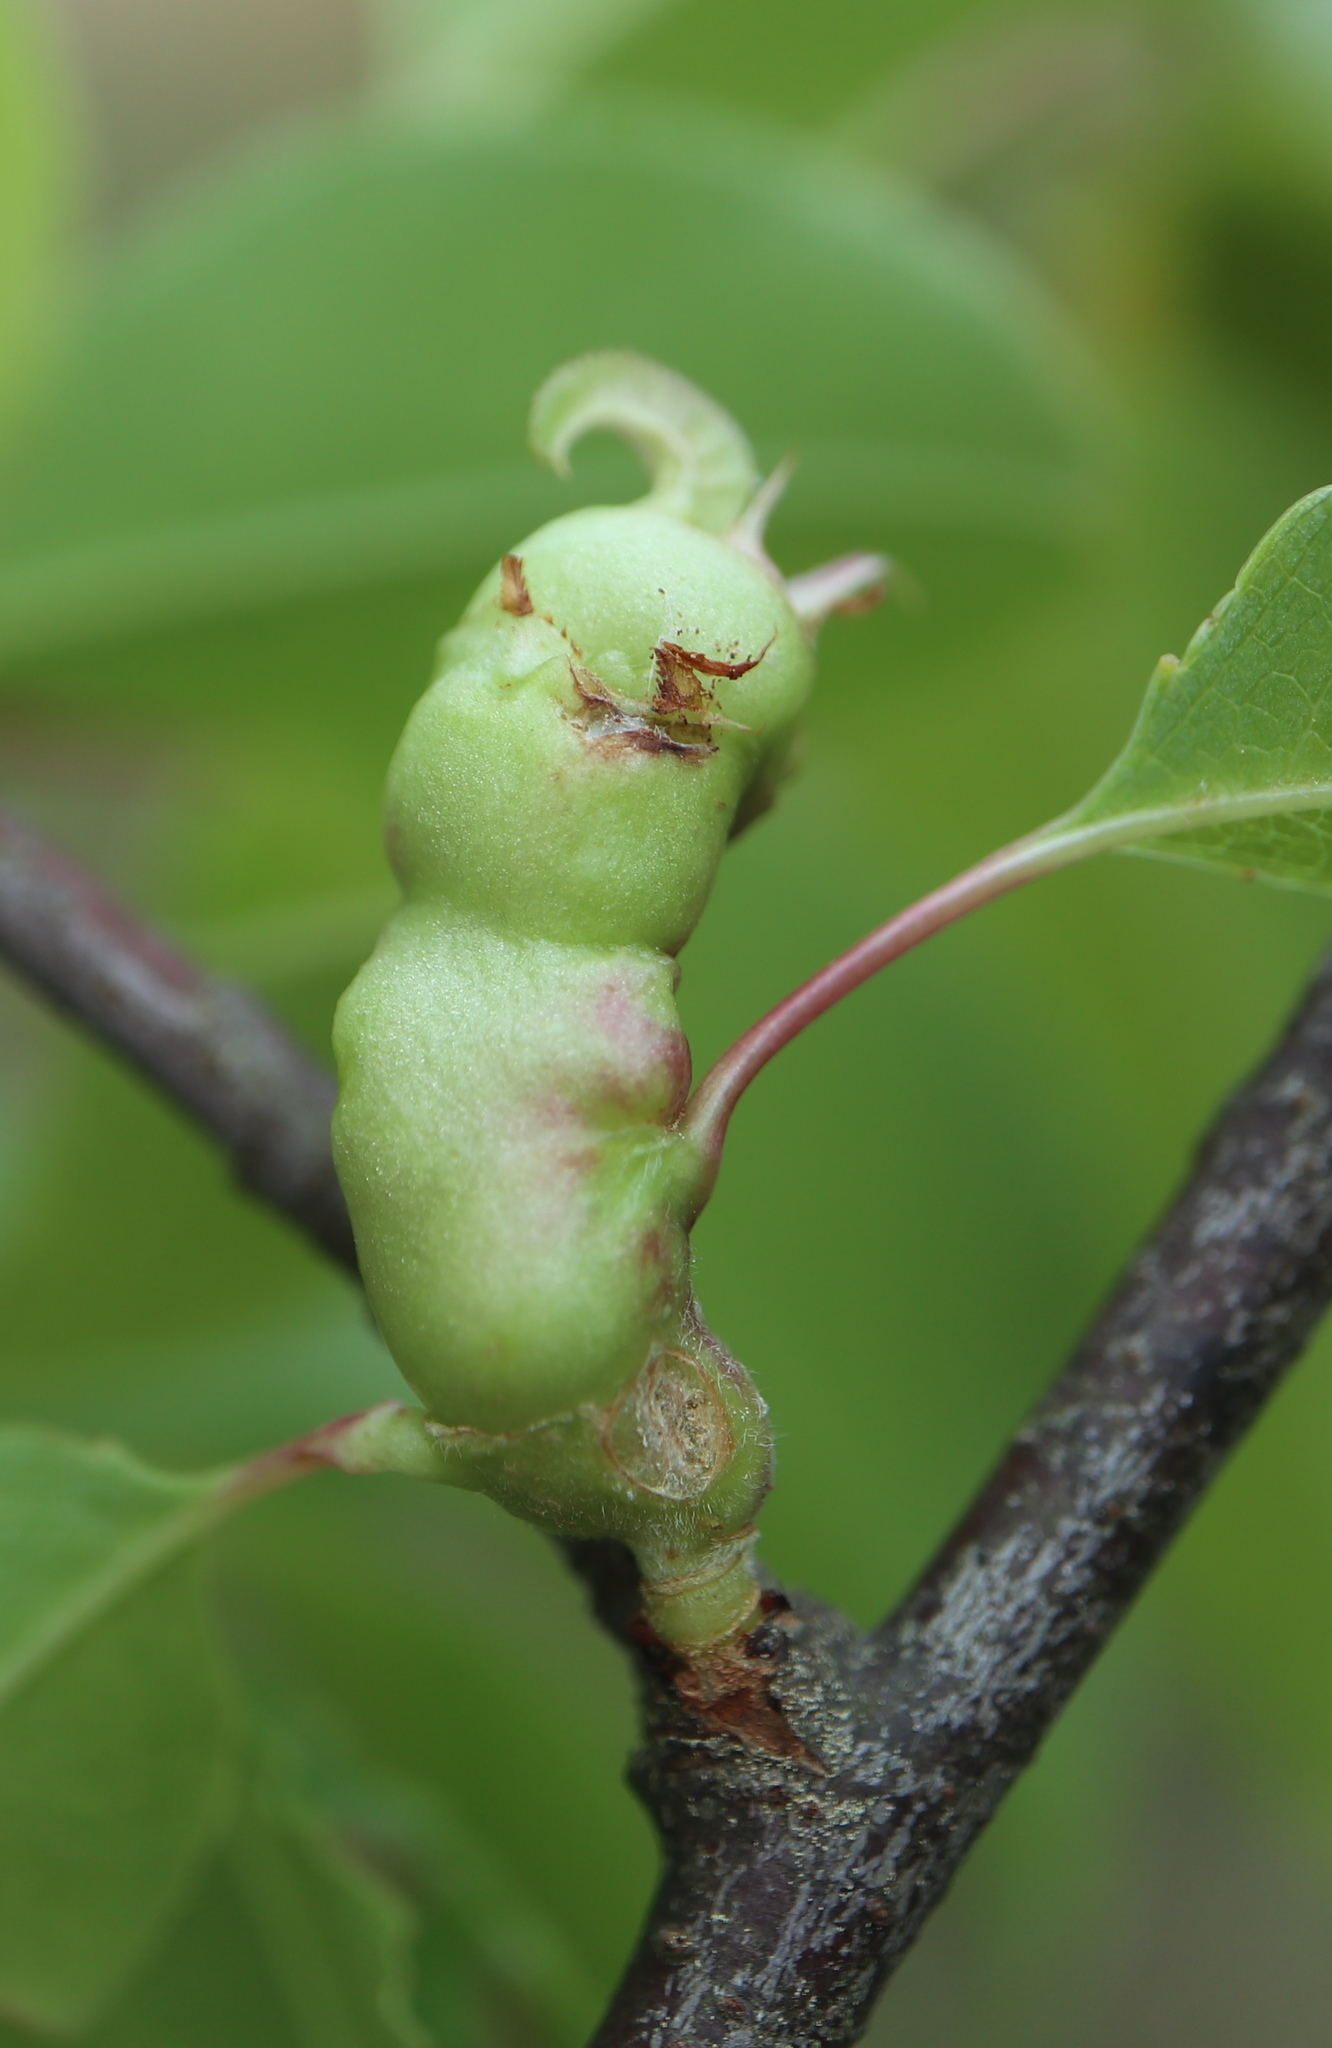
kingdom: Animalia
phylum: Arthropoda
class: Insecta
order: Diptera
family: Cecidomyiidae
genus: Contarinia
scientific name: Contarinia cerasiserotinae
